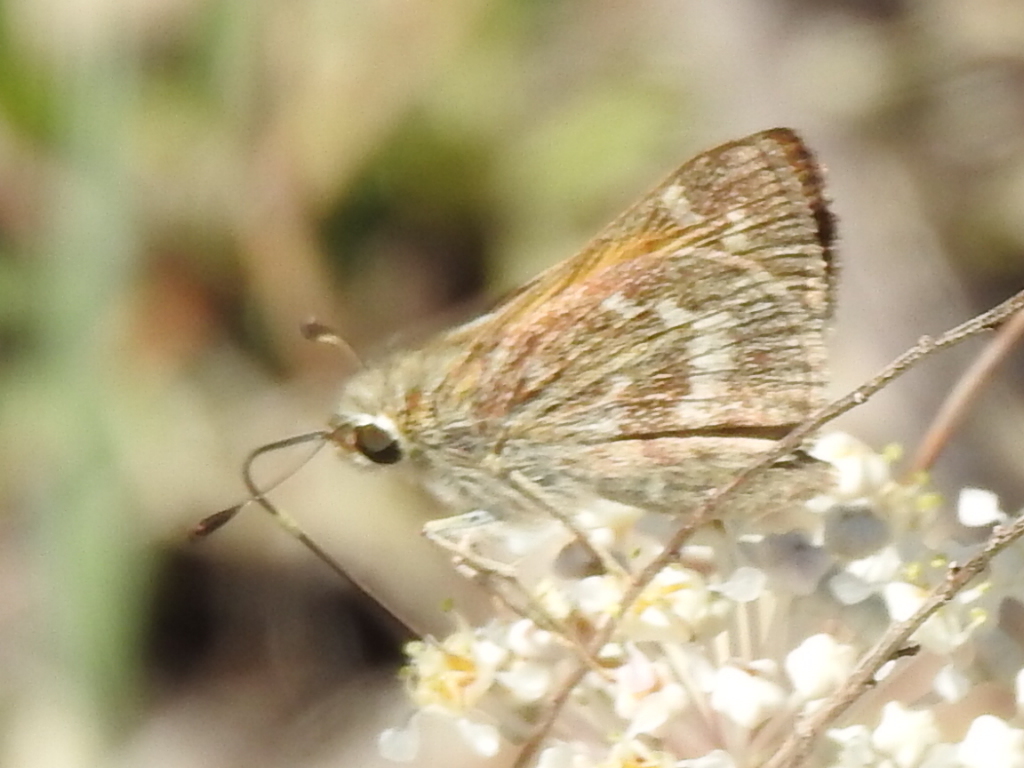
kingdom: Animalia
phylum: Arthropoda
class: Insecta
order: Lepidoptera
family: Hesperiidae
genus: Atalopedes
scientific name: Atalopedes
